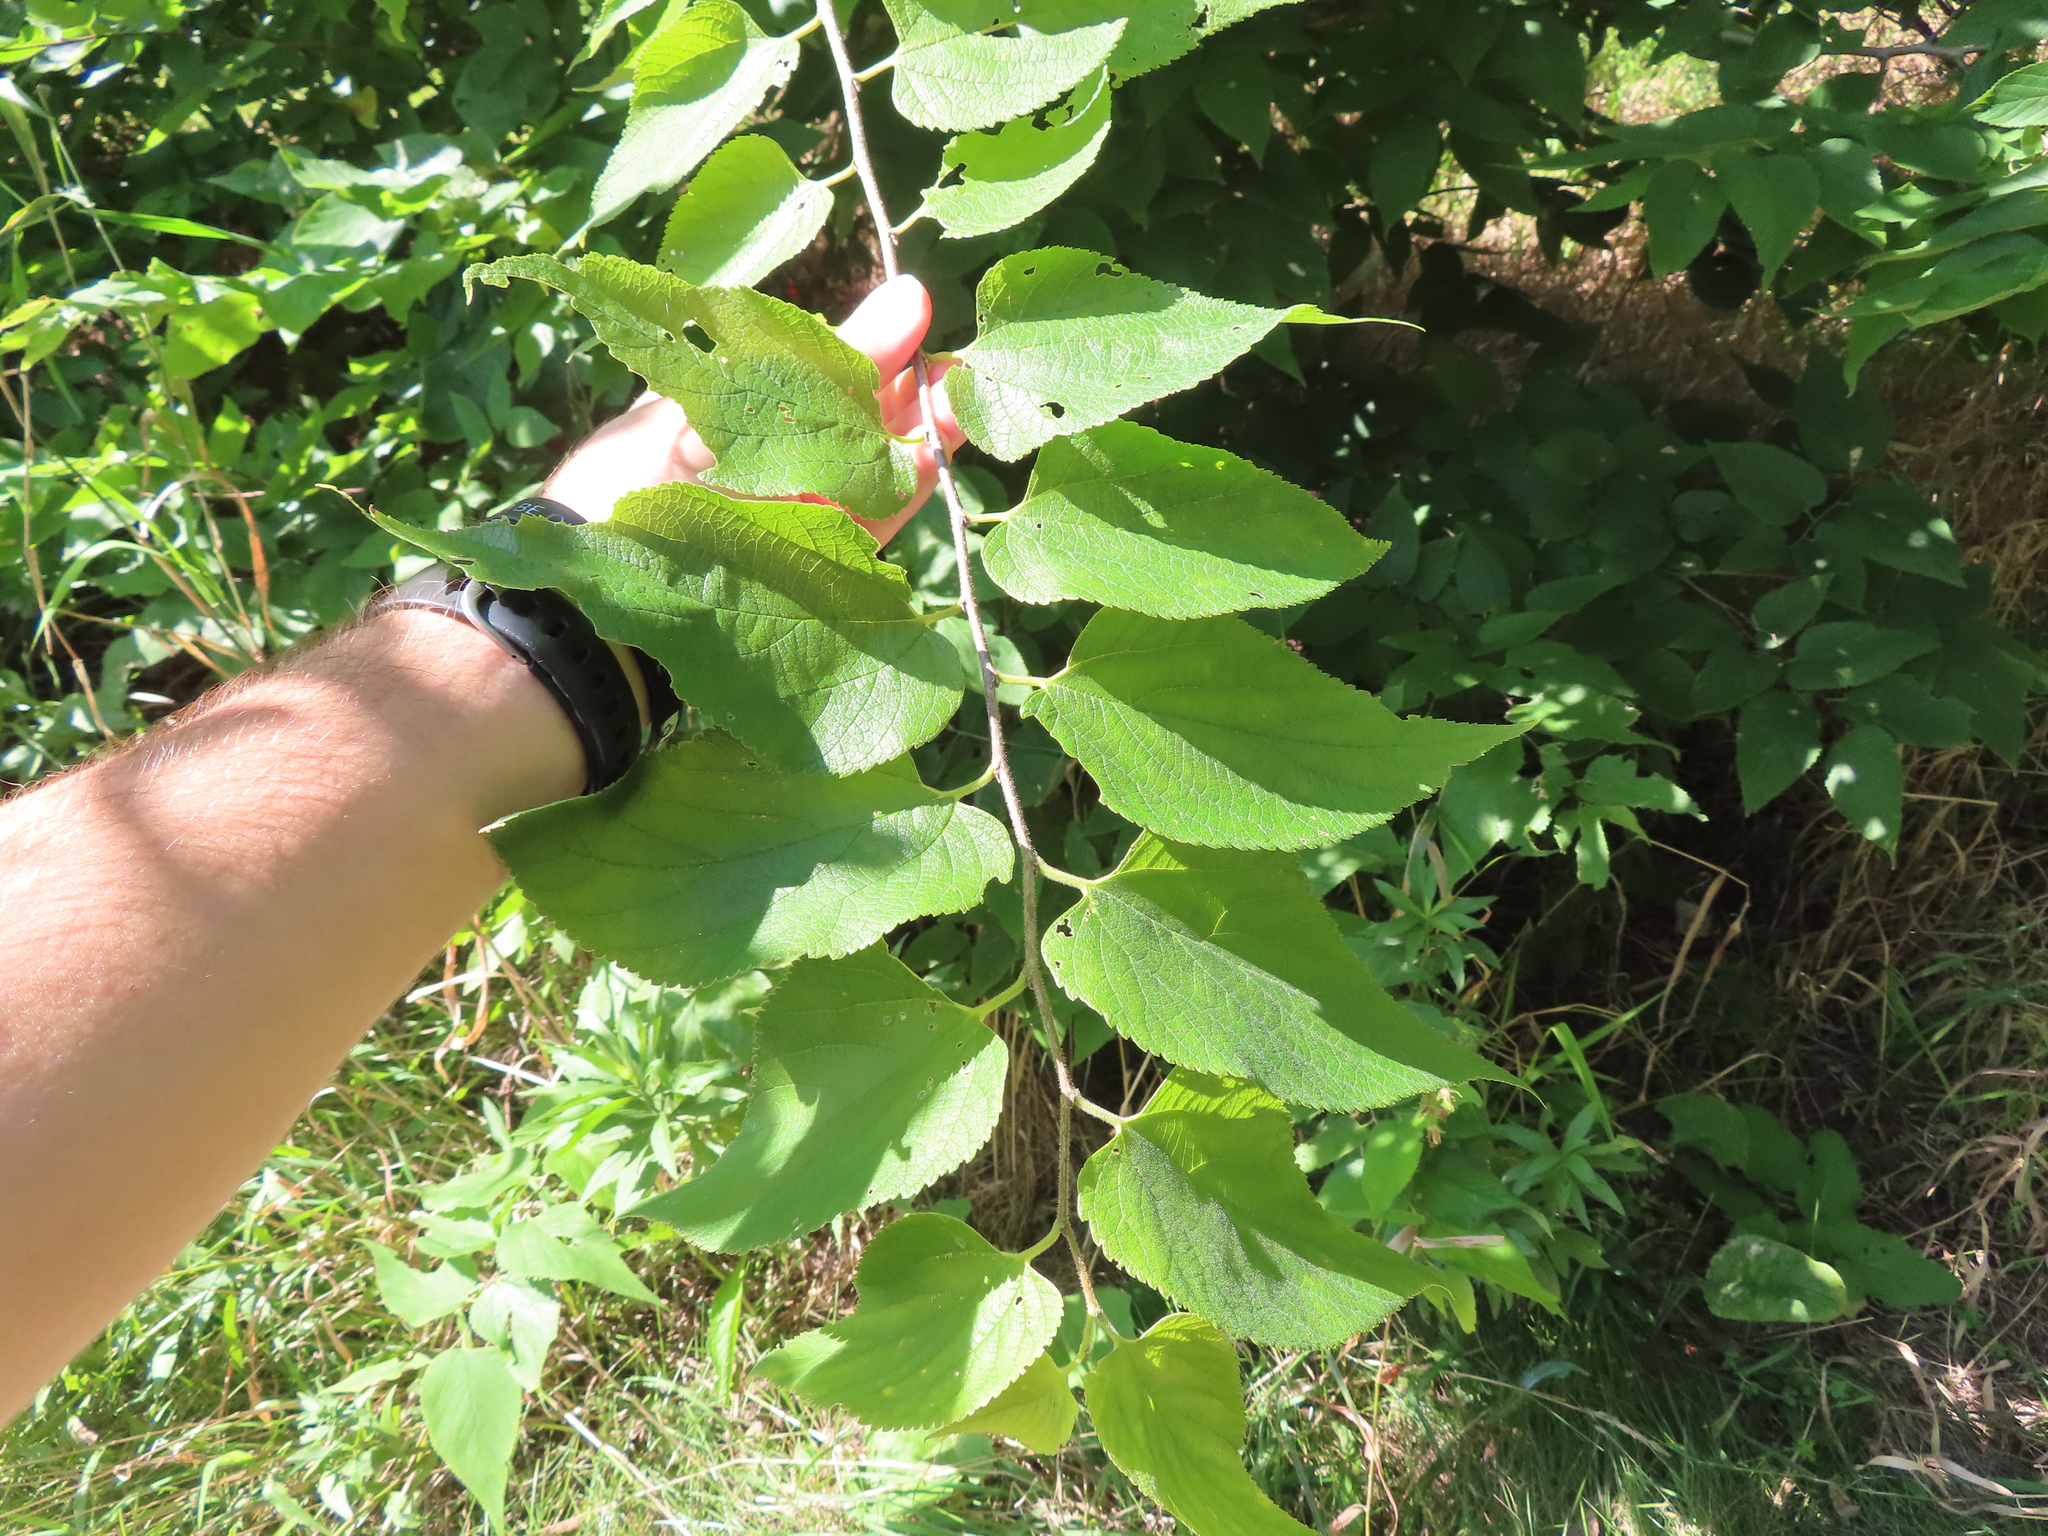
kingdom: Plantae
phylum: Tracheophyta
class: Magnoliopsida
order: Rosales
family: Cannabaceae
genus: Celtis
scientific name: Celtis occidentalis
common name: Common hackberry
